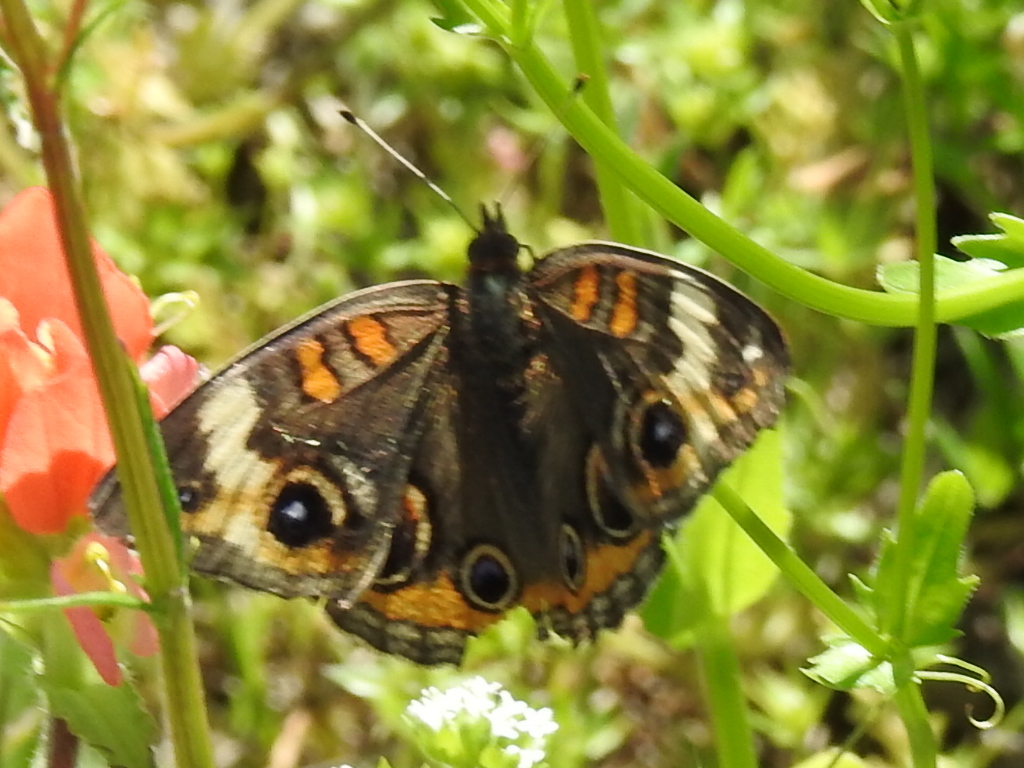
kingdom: Animalia
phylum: Arthropoda
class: Insecta
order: Lepidoptera
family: Nymphalidae
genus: Junonia
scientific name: Junonia coenia
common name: Common buckeye
